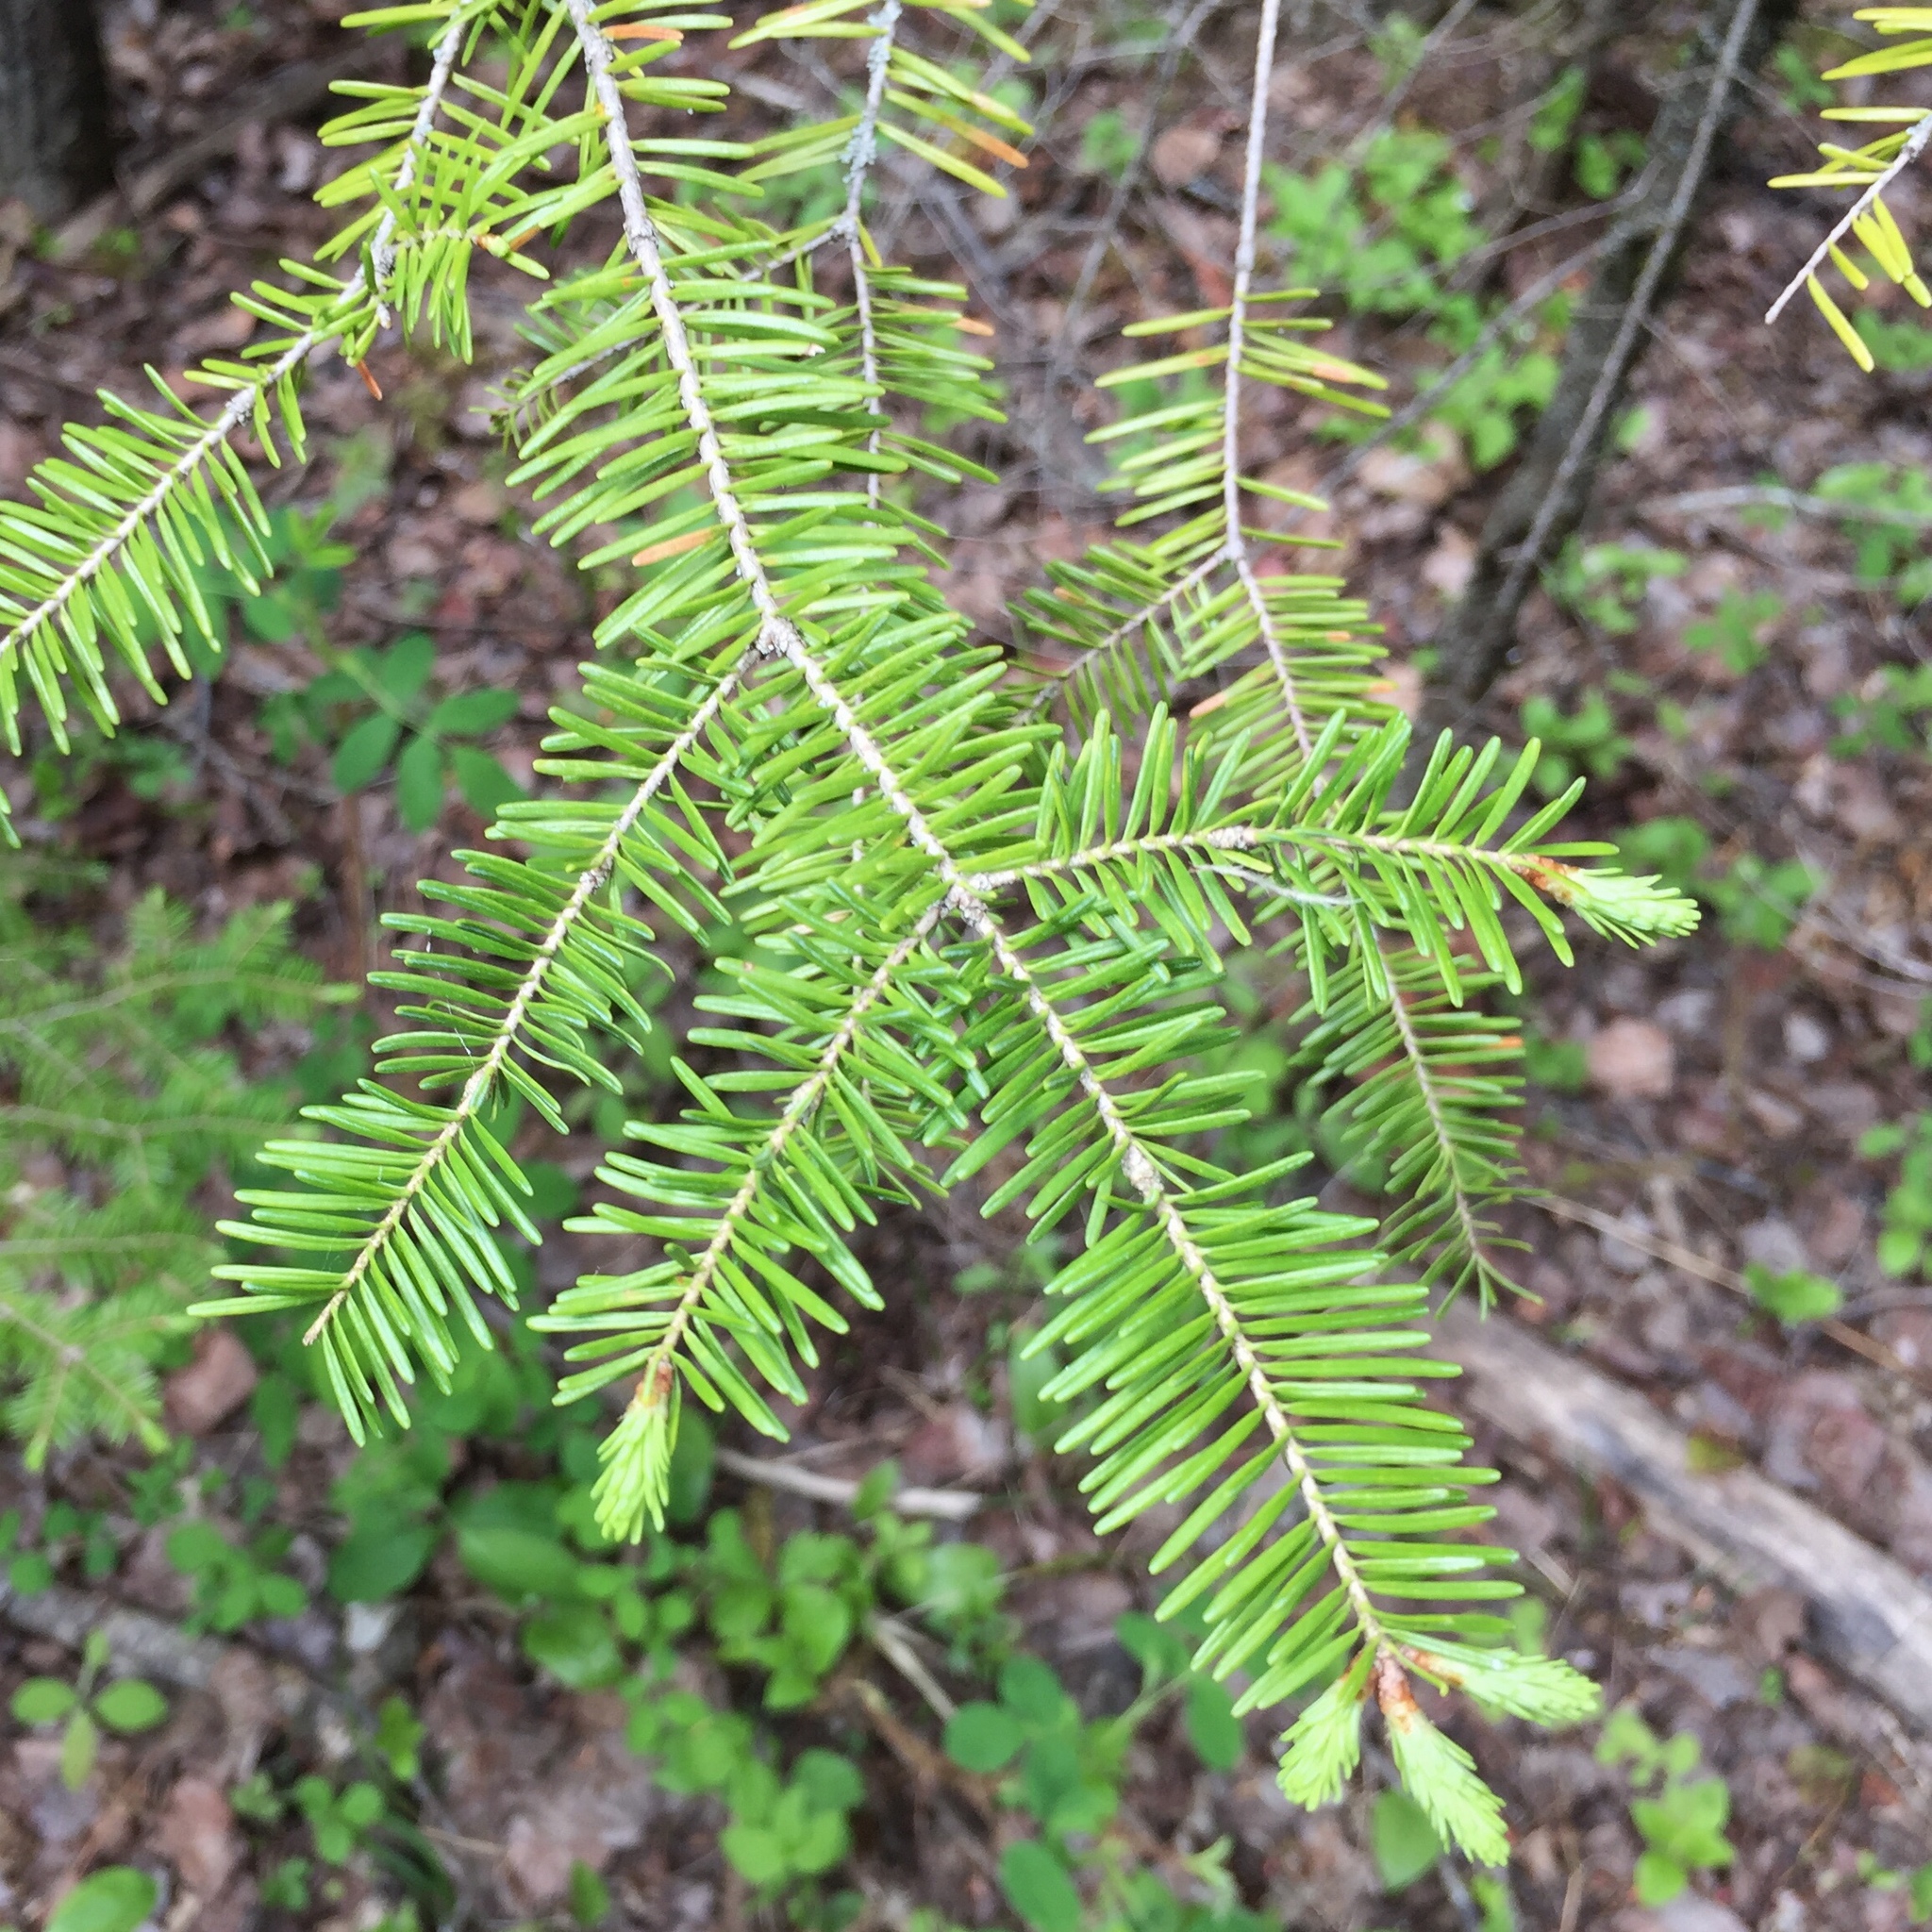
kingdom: Plantae
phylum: Tracheophyta
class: Pinopsida
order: Pinales
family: Pinaceae
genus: Abies
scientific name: Abies balsamea
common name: Balsam fir
